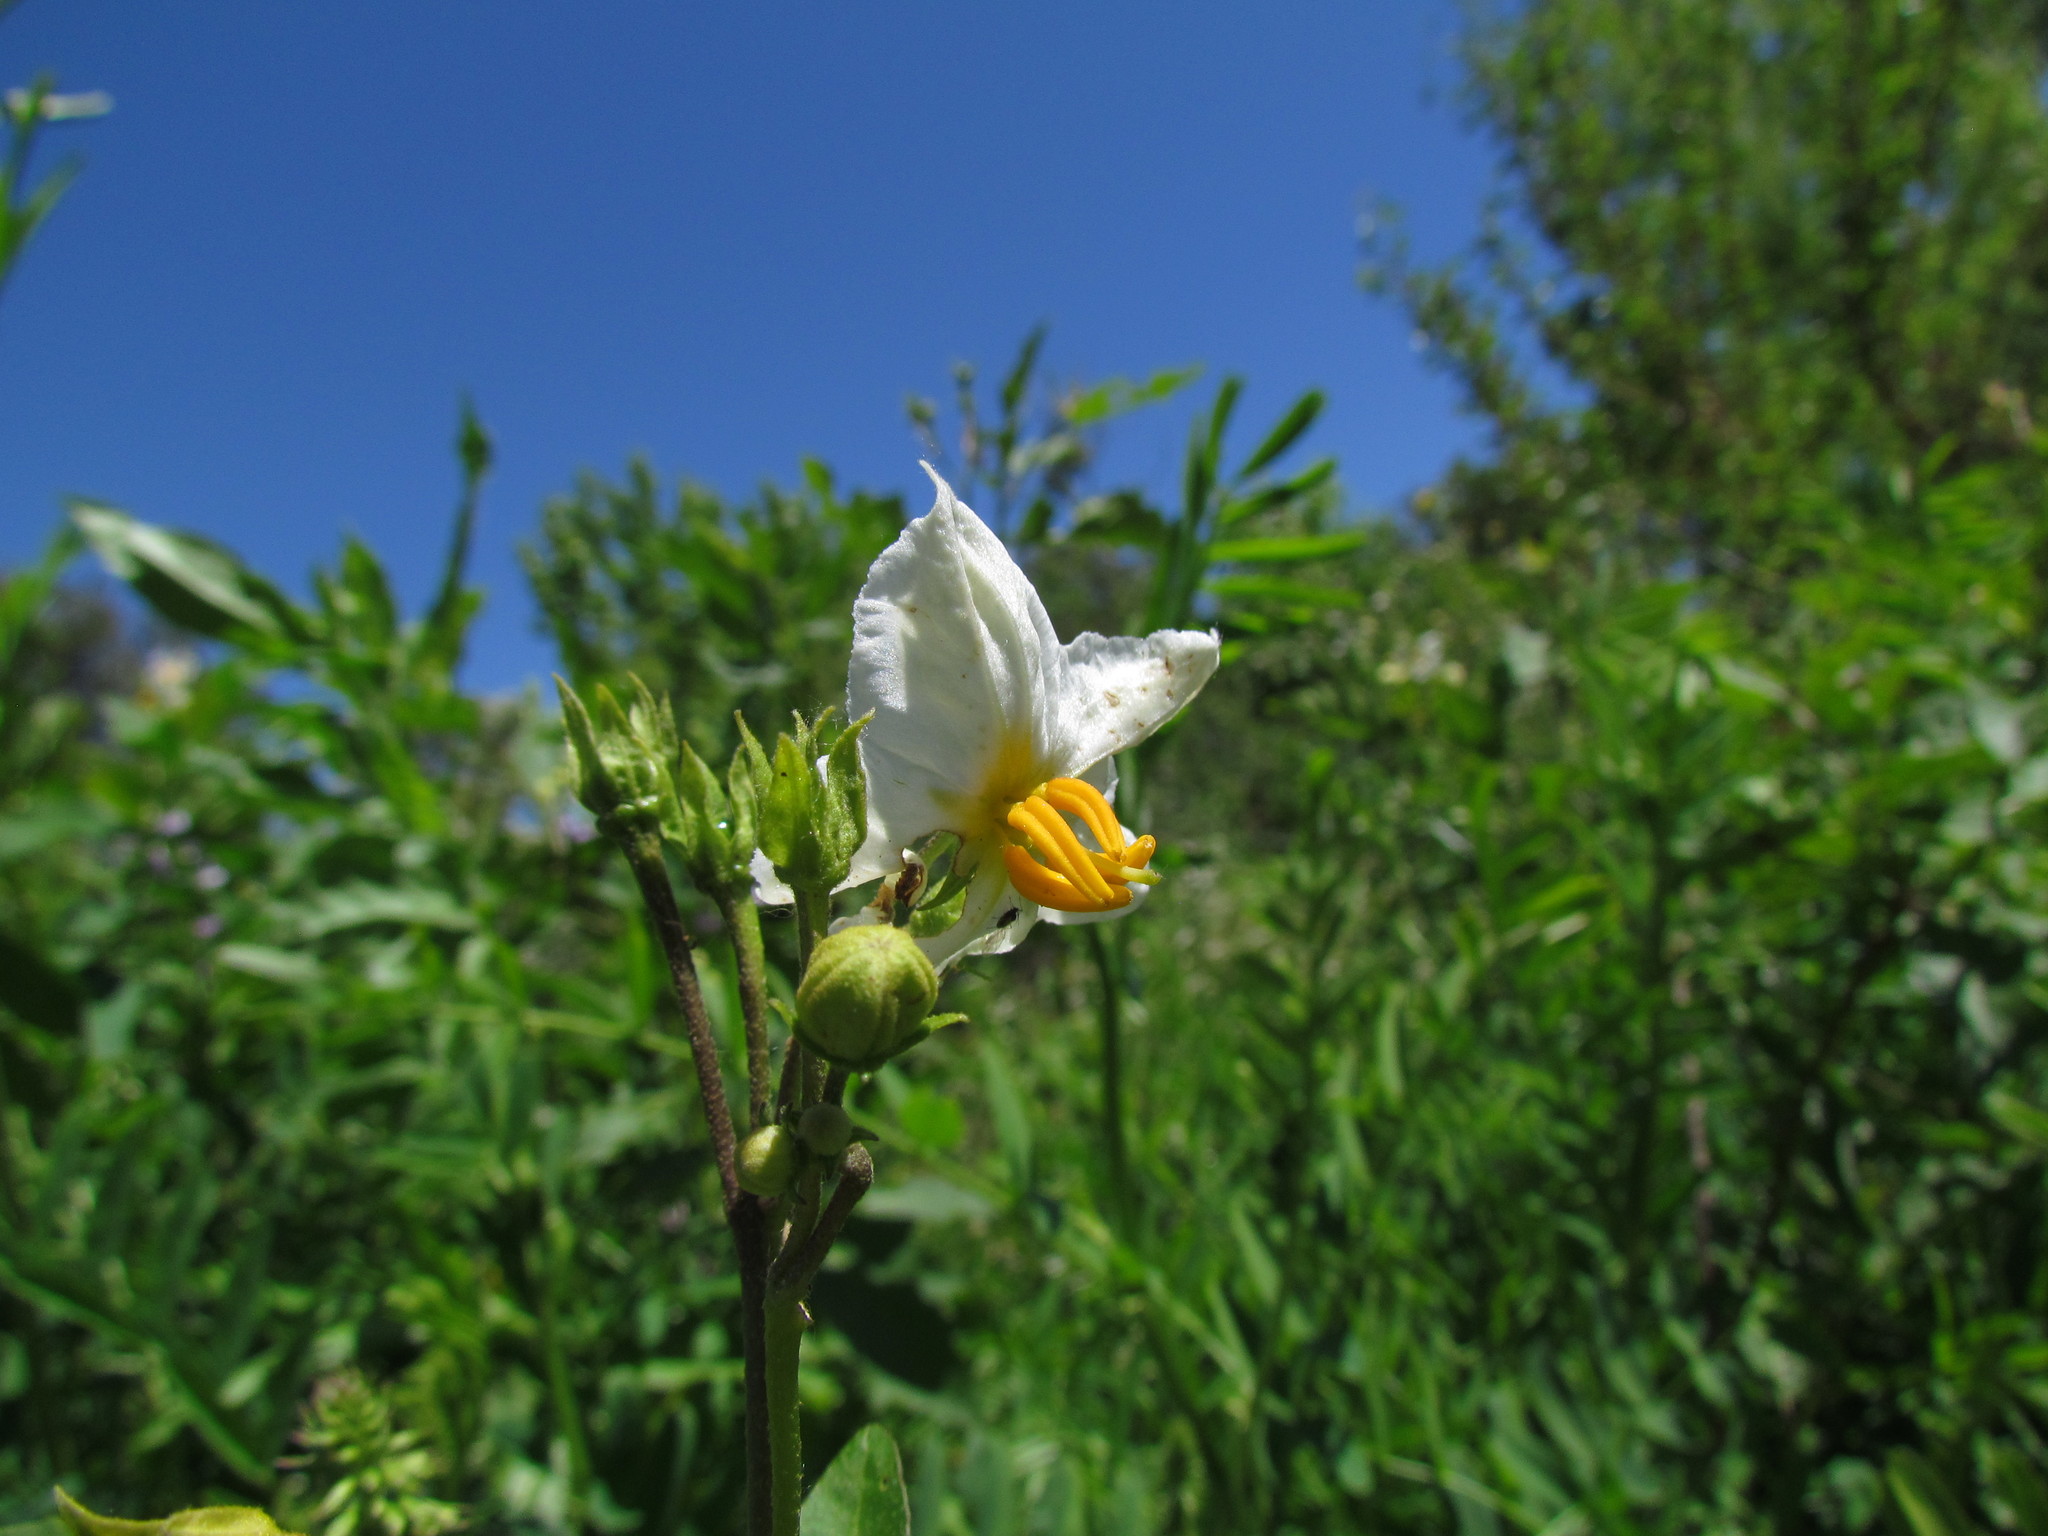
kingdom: Plantae
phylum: Tracheophyta
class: Magnoliopsida
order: Solanales
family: Solanaceae
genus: Solanum
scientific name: Solanum bonariense
